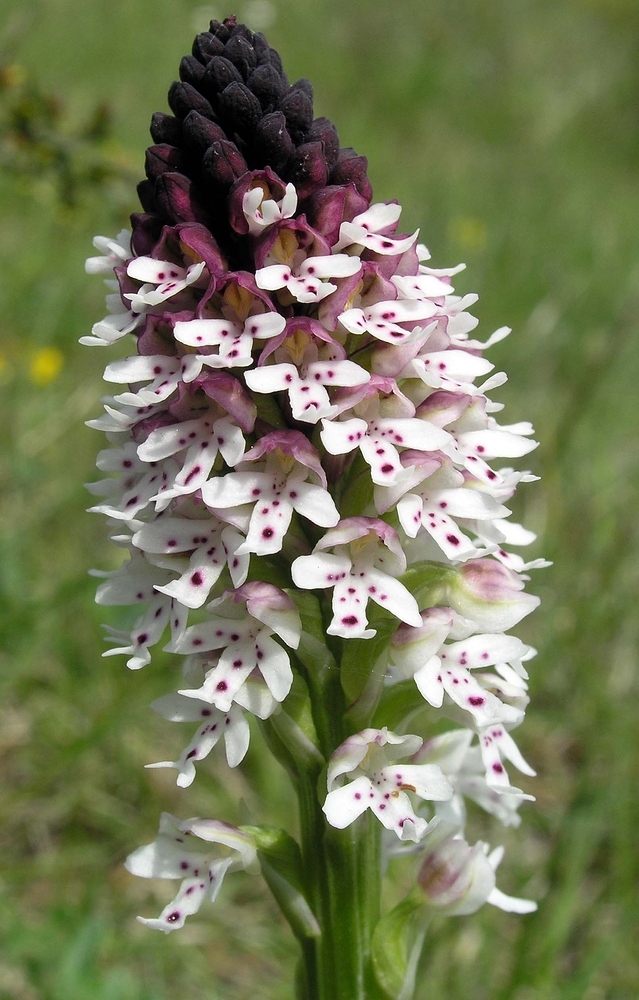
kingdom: Plantae
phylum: Tracheophyta
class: Liliopsida
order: Asparagales
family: Orchidaceae
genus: Neotinea
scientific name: Neotinea ustulata
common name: Burnt orchid
